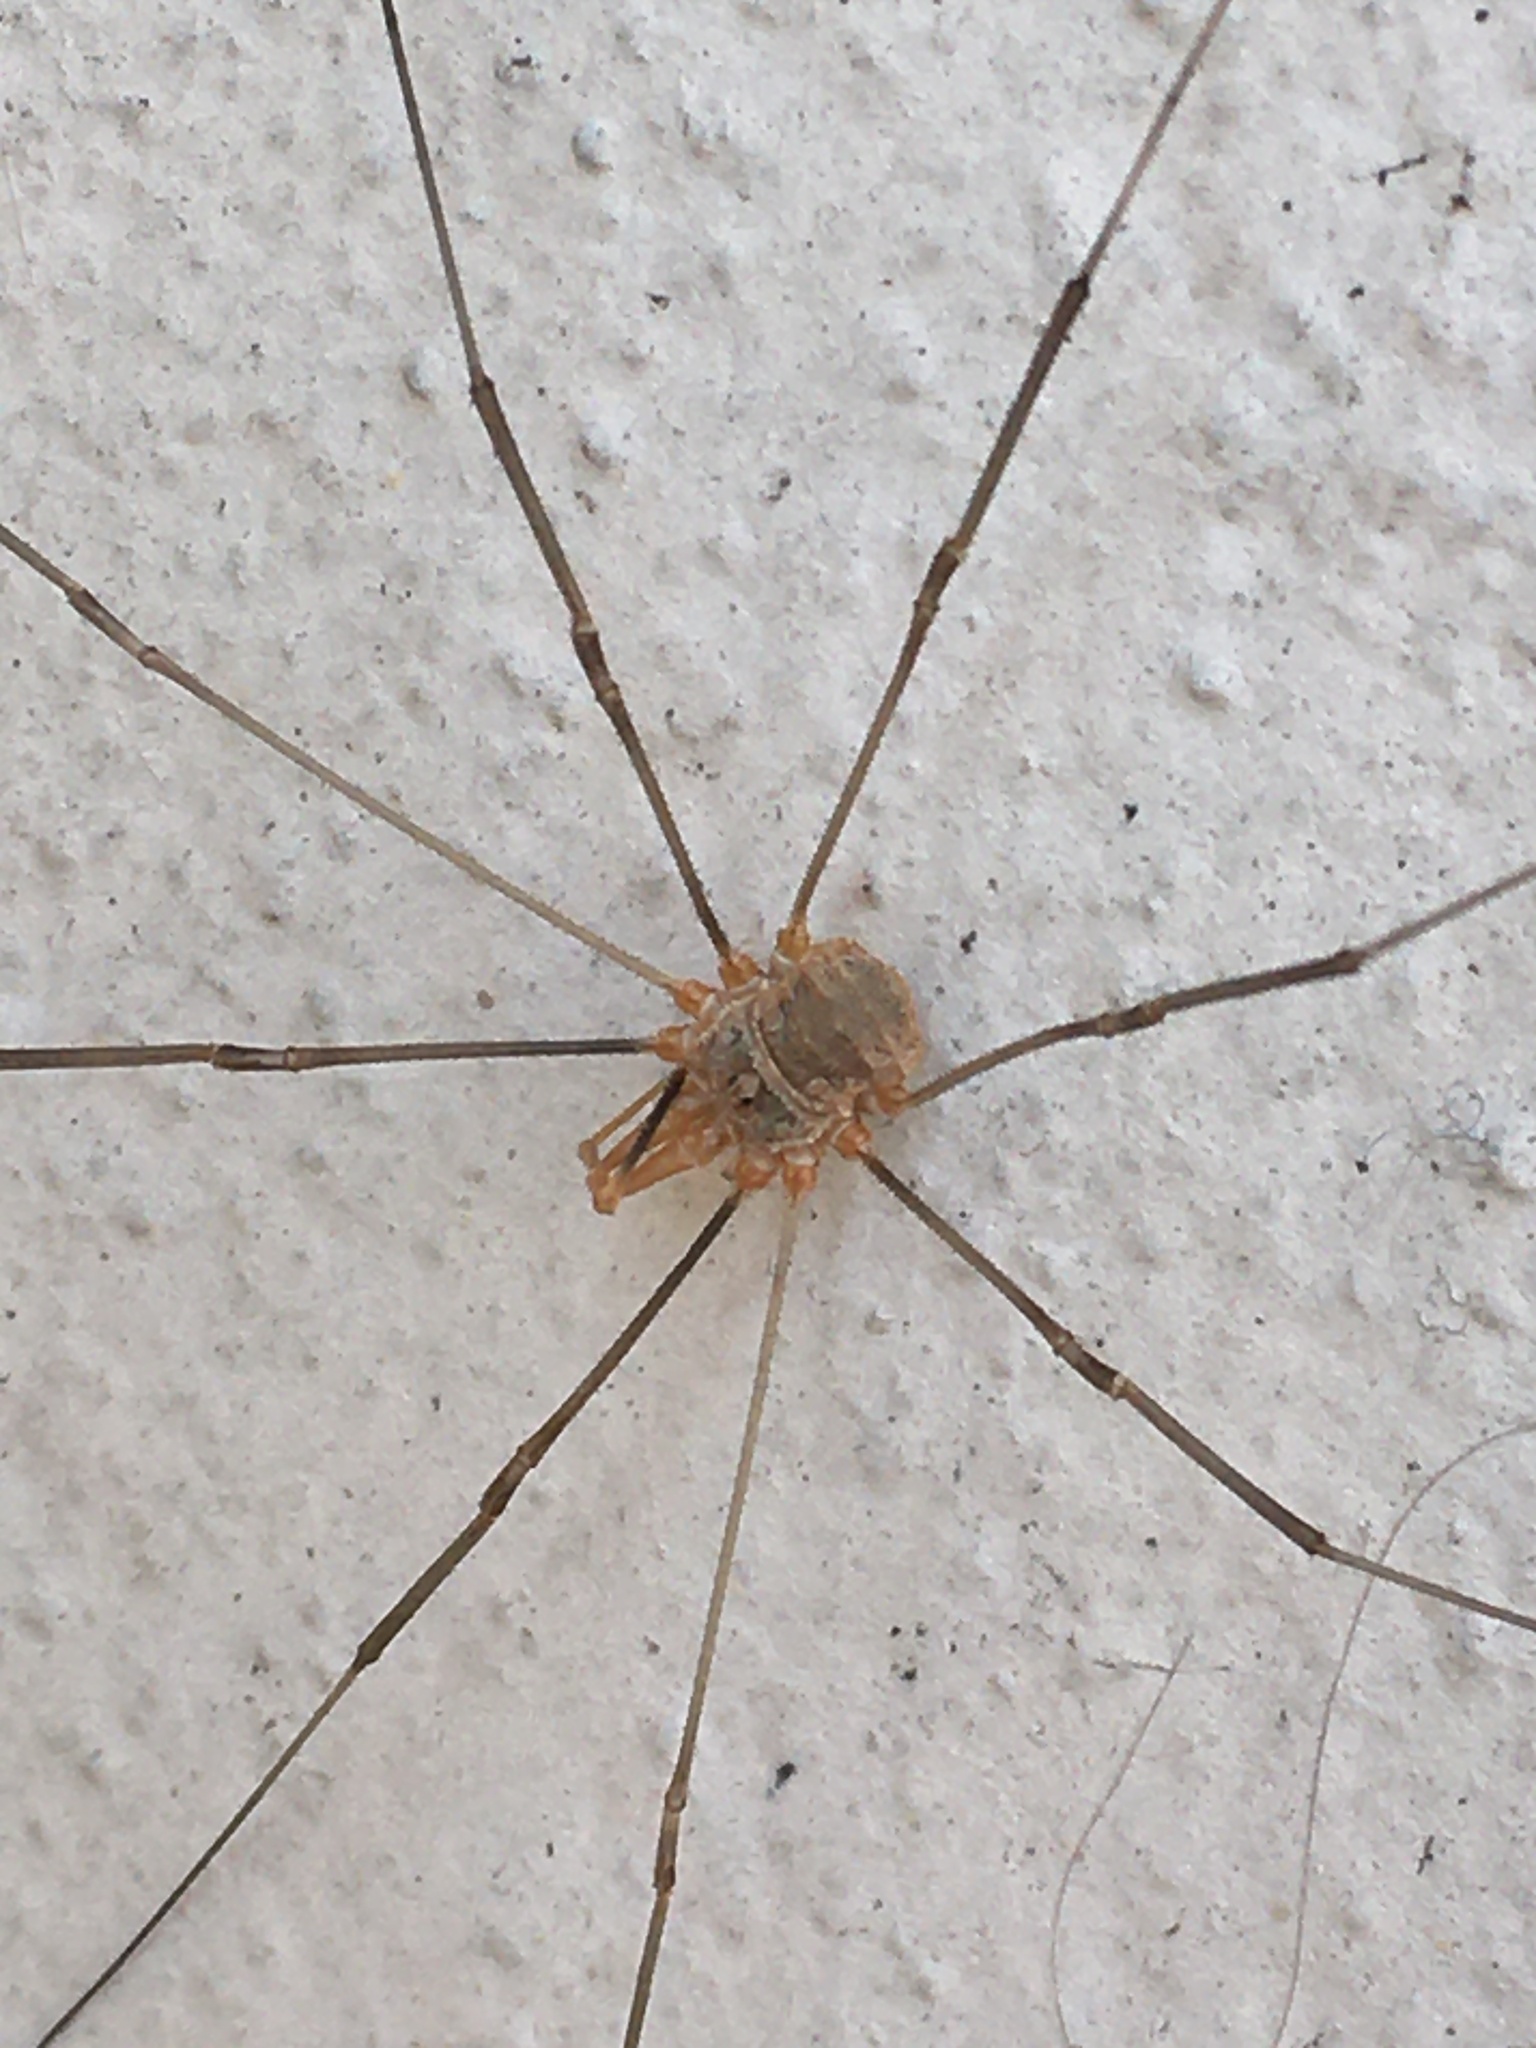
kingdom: Animalia
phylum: Arthropoda
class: Arachnida
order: Opiliones
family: Phalangiidae
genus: Phalangium
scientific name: Phalangium opilio
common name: Daddy longleg
